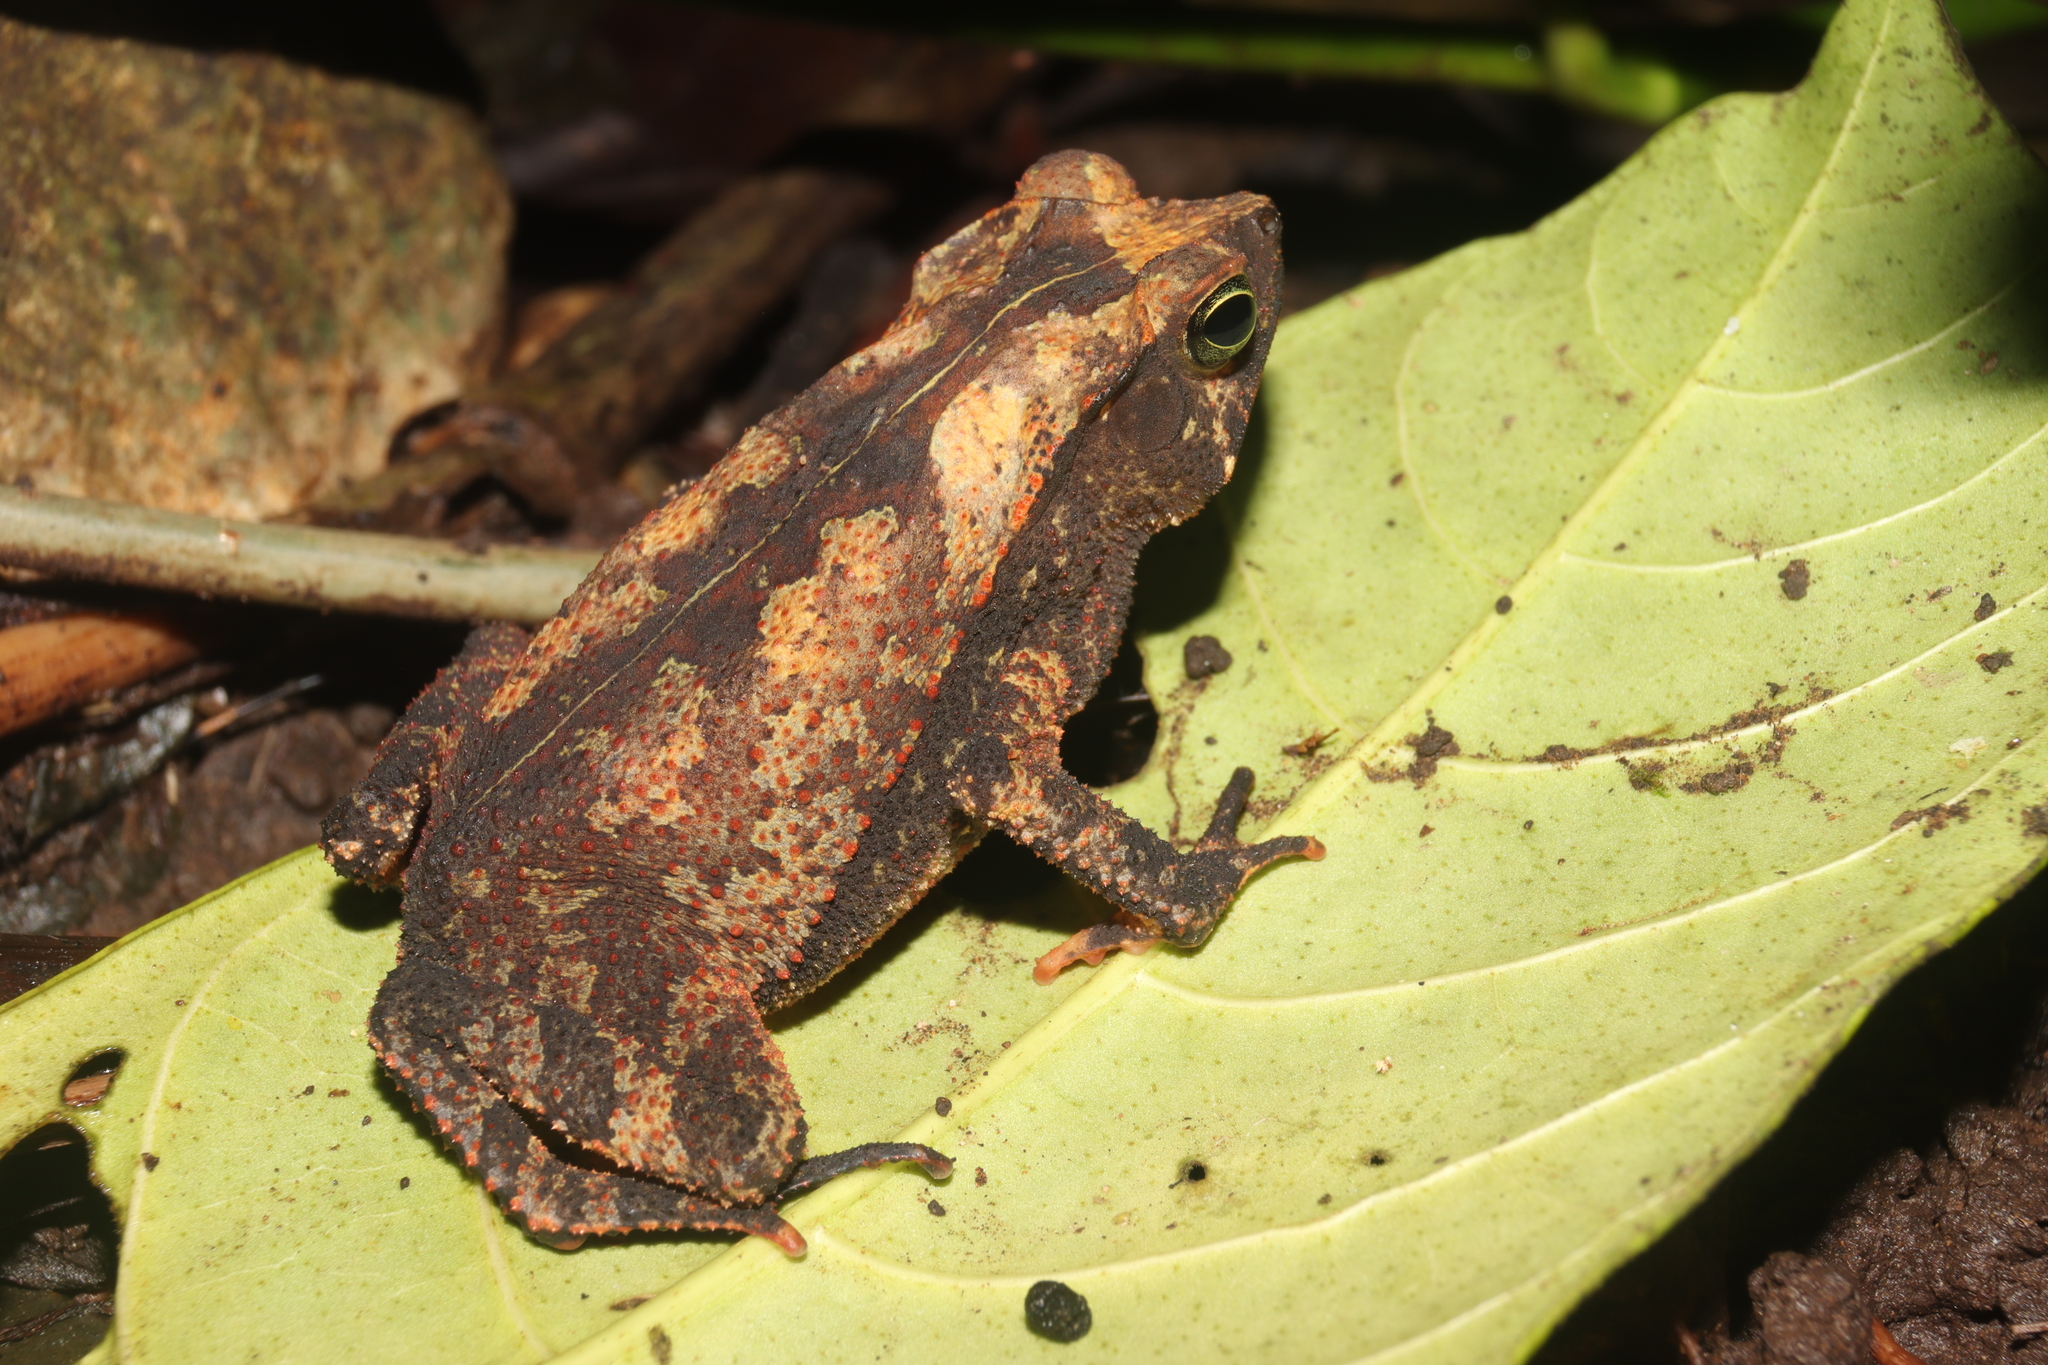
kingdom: Animalia
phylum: Chordata
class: Amphibia
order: Anura
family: Bufonidae
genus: Rhinella
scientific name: Rhinella alata
